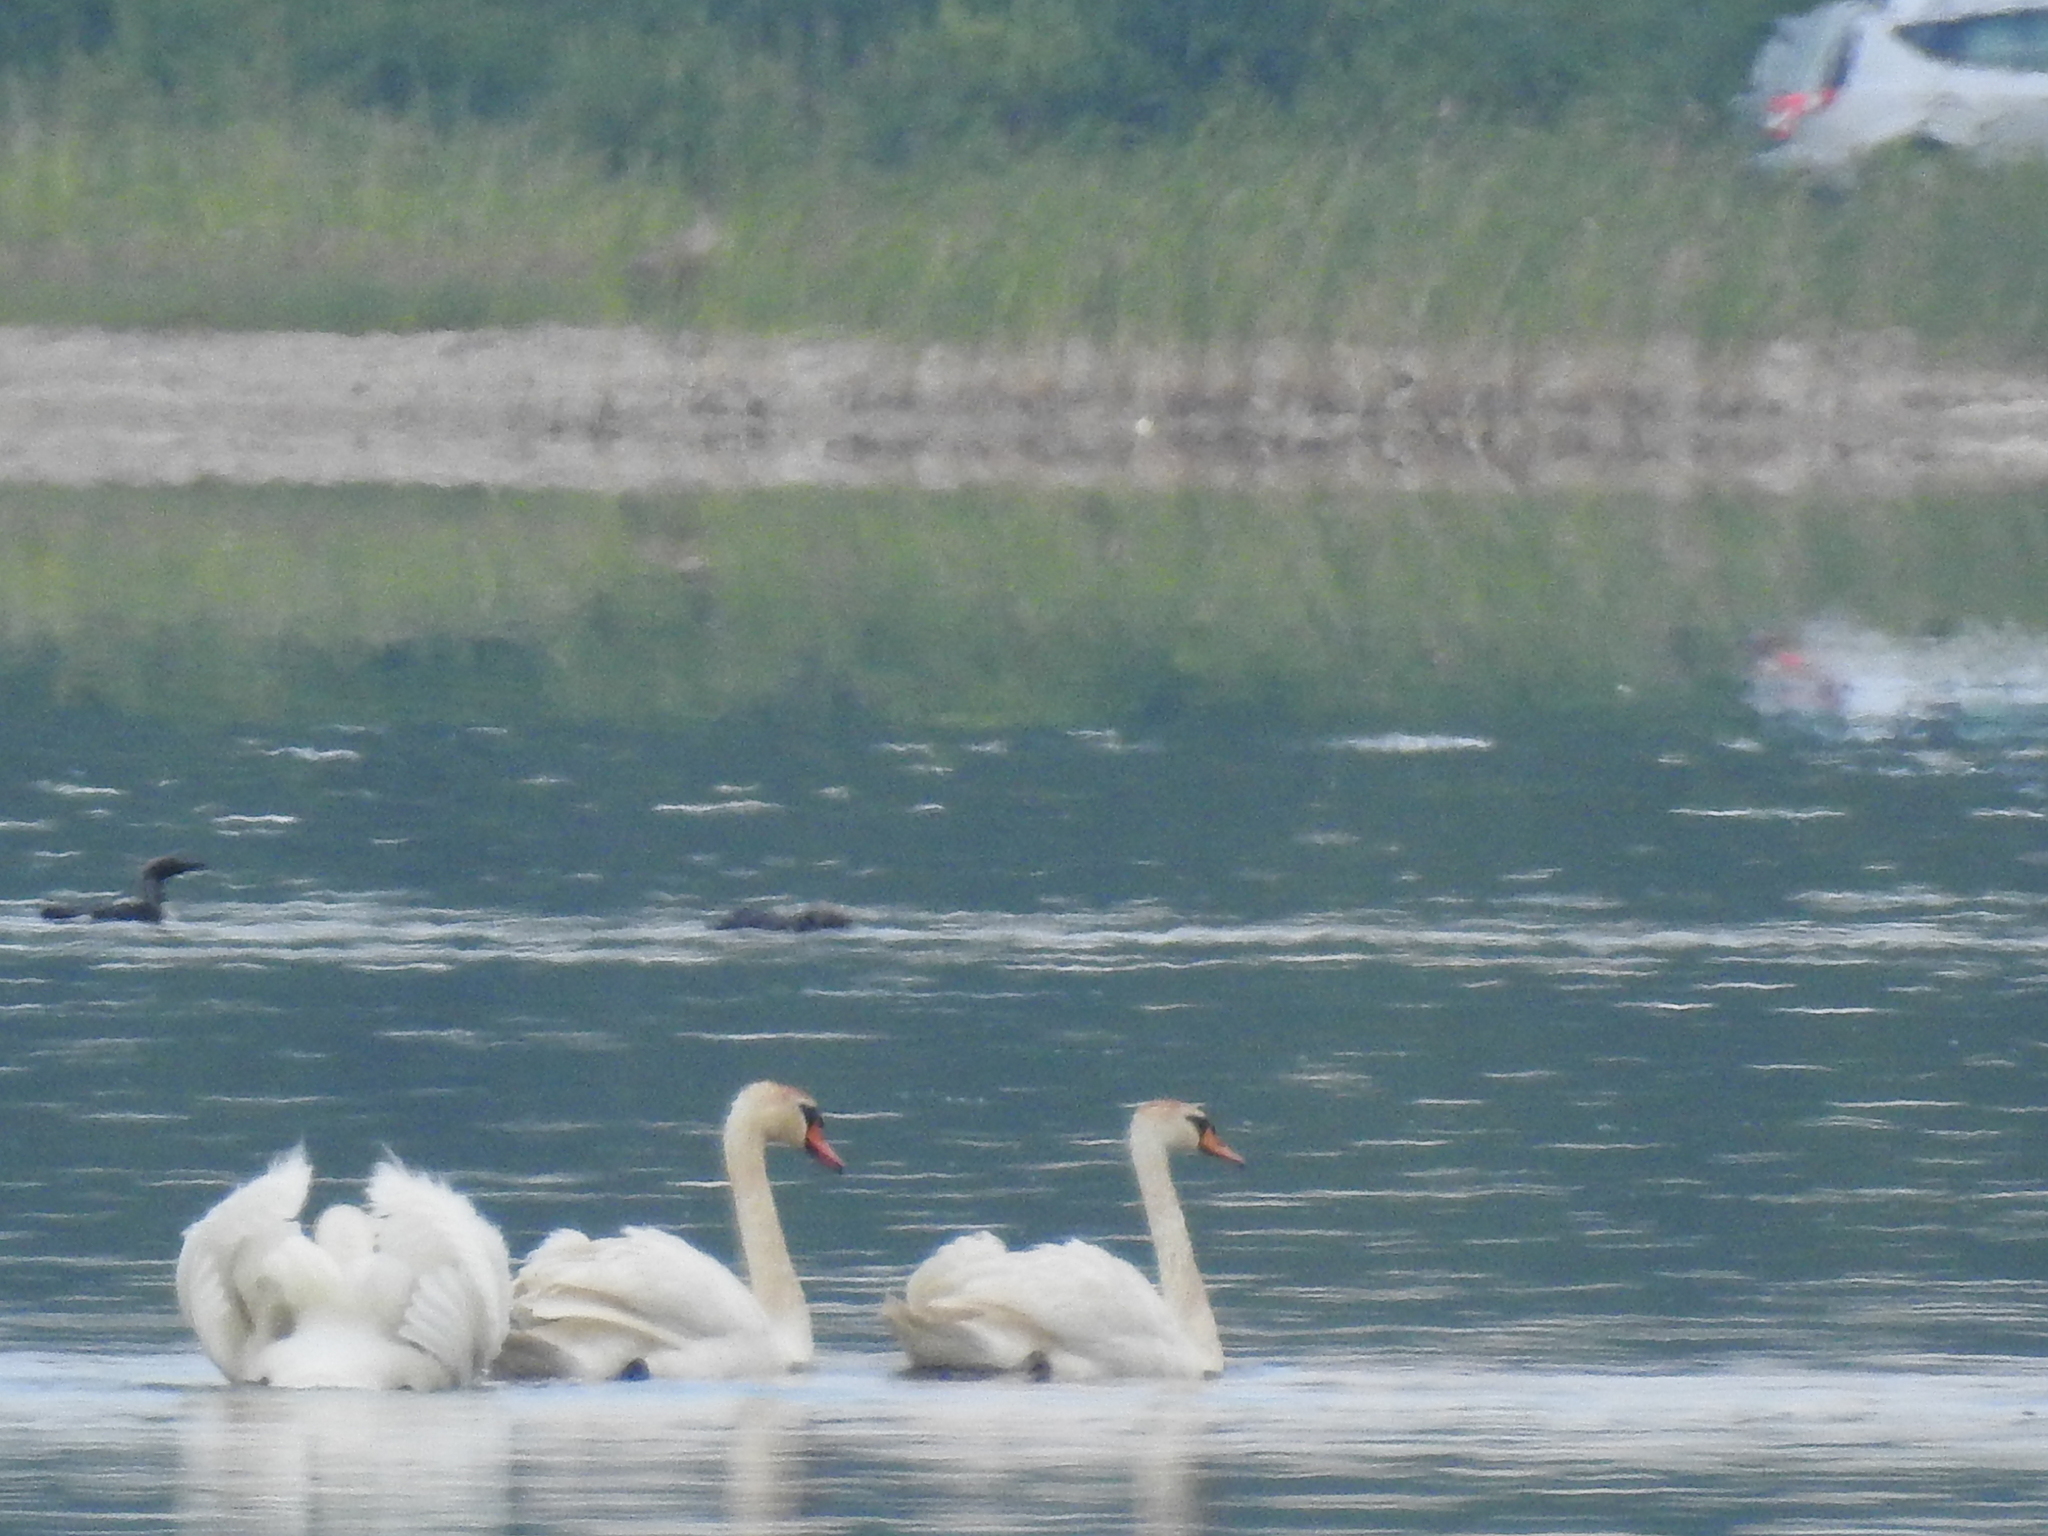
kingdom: Animalia
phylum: Chordata
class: Aves
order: Anseriformes
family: Anatidae
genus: Cygnus
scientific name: Cygnus olor
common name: Mute swan
